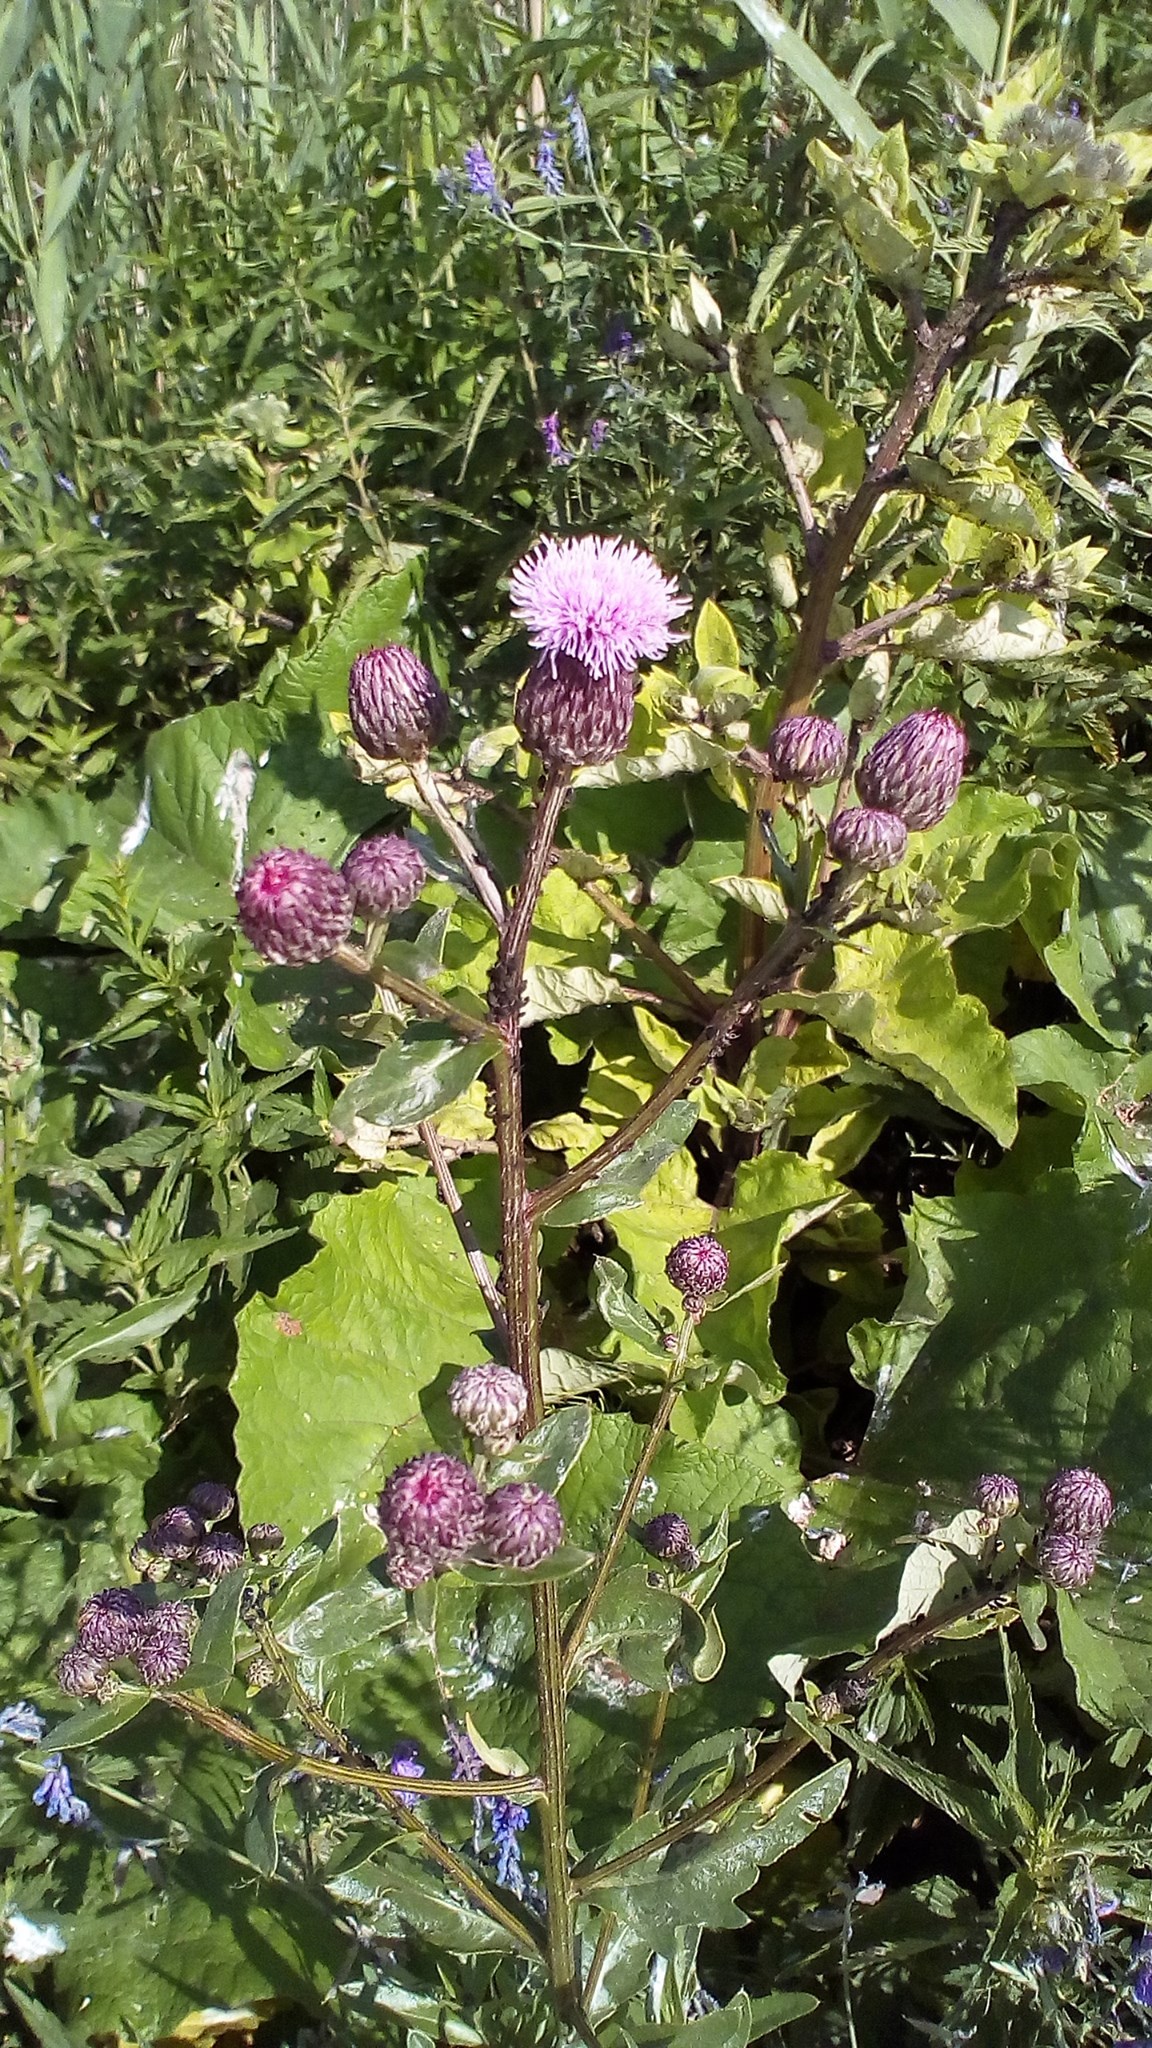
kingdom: Plantae
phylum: Tracheophyta
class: Magnoliopsida
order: Asterales
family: Asteraceae
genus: Cirsium
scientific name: Cirsium arvense
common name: Creeping thistle
